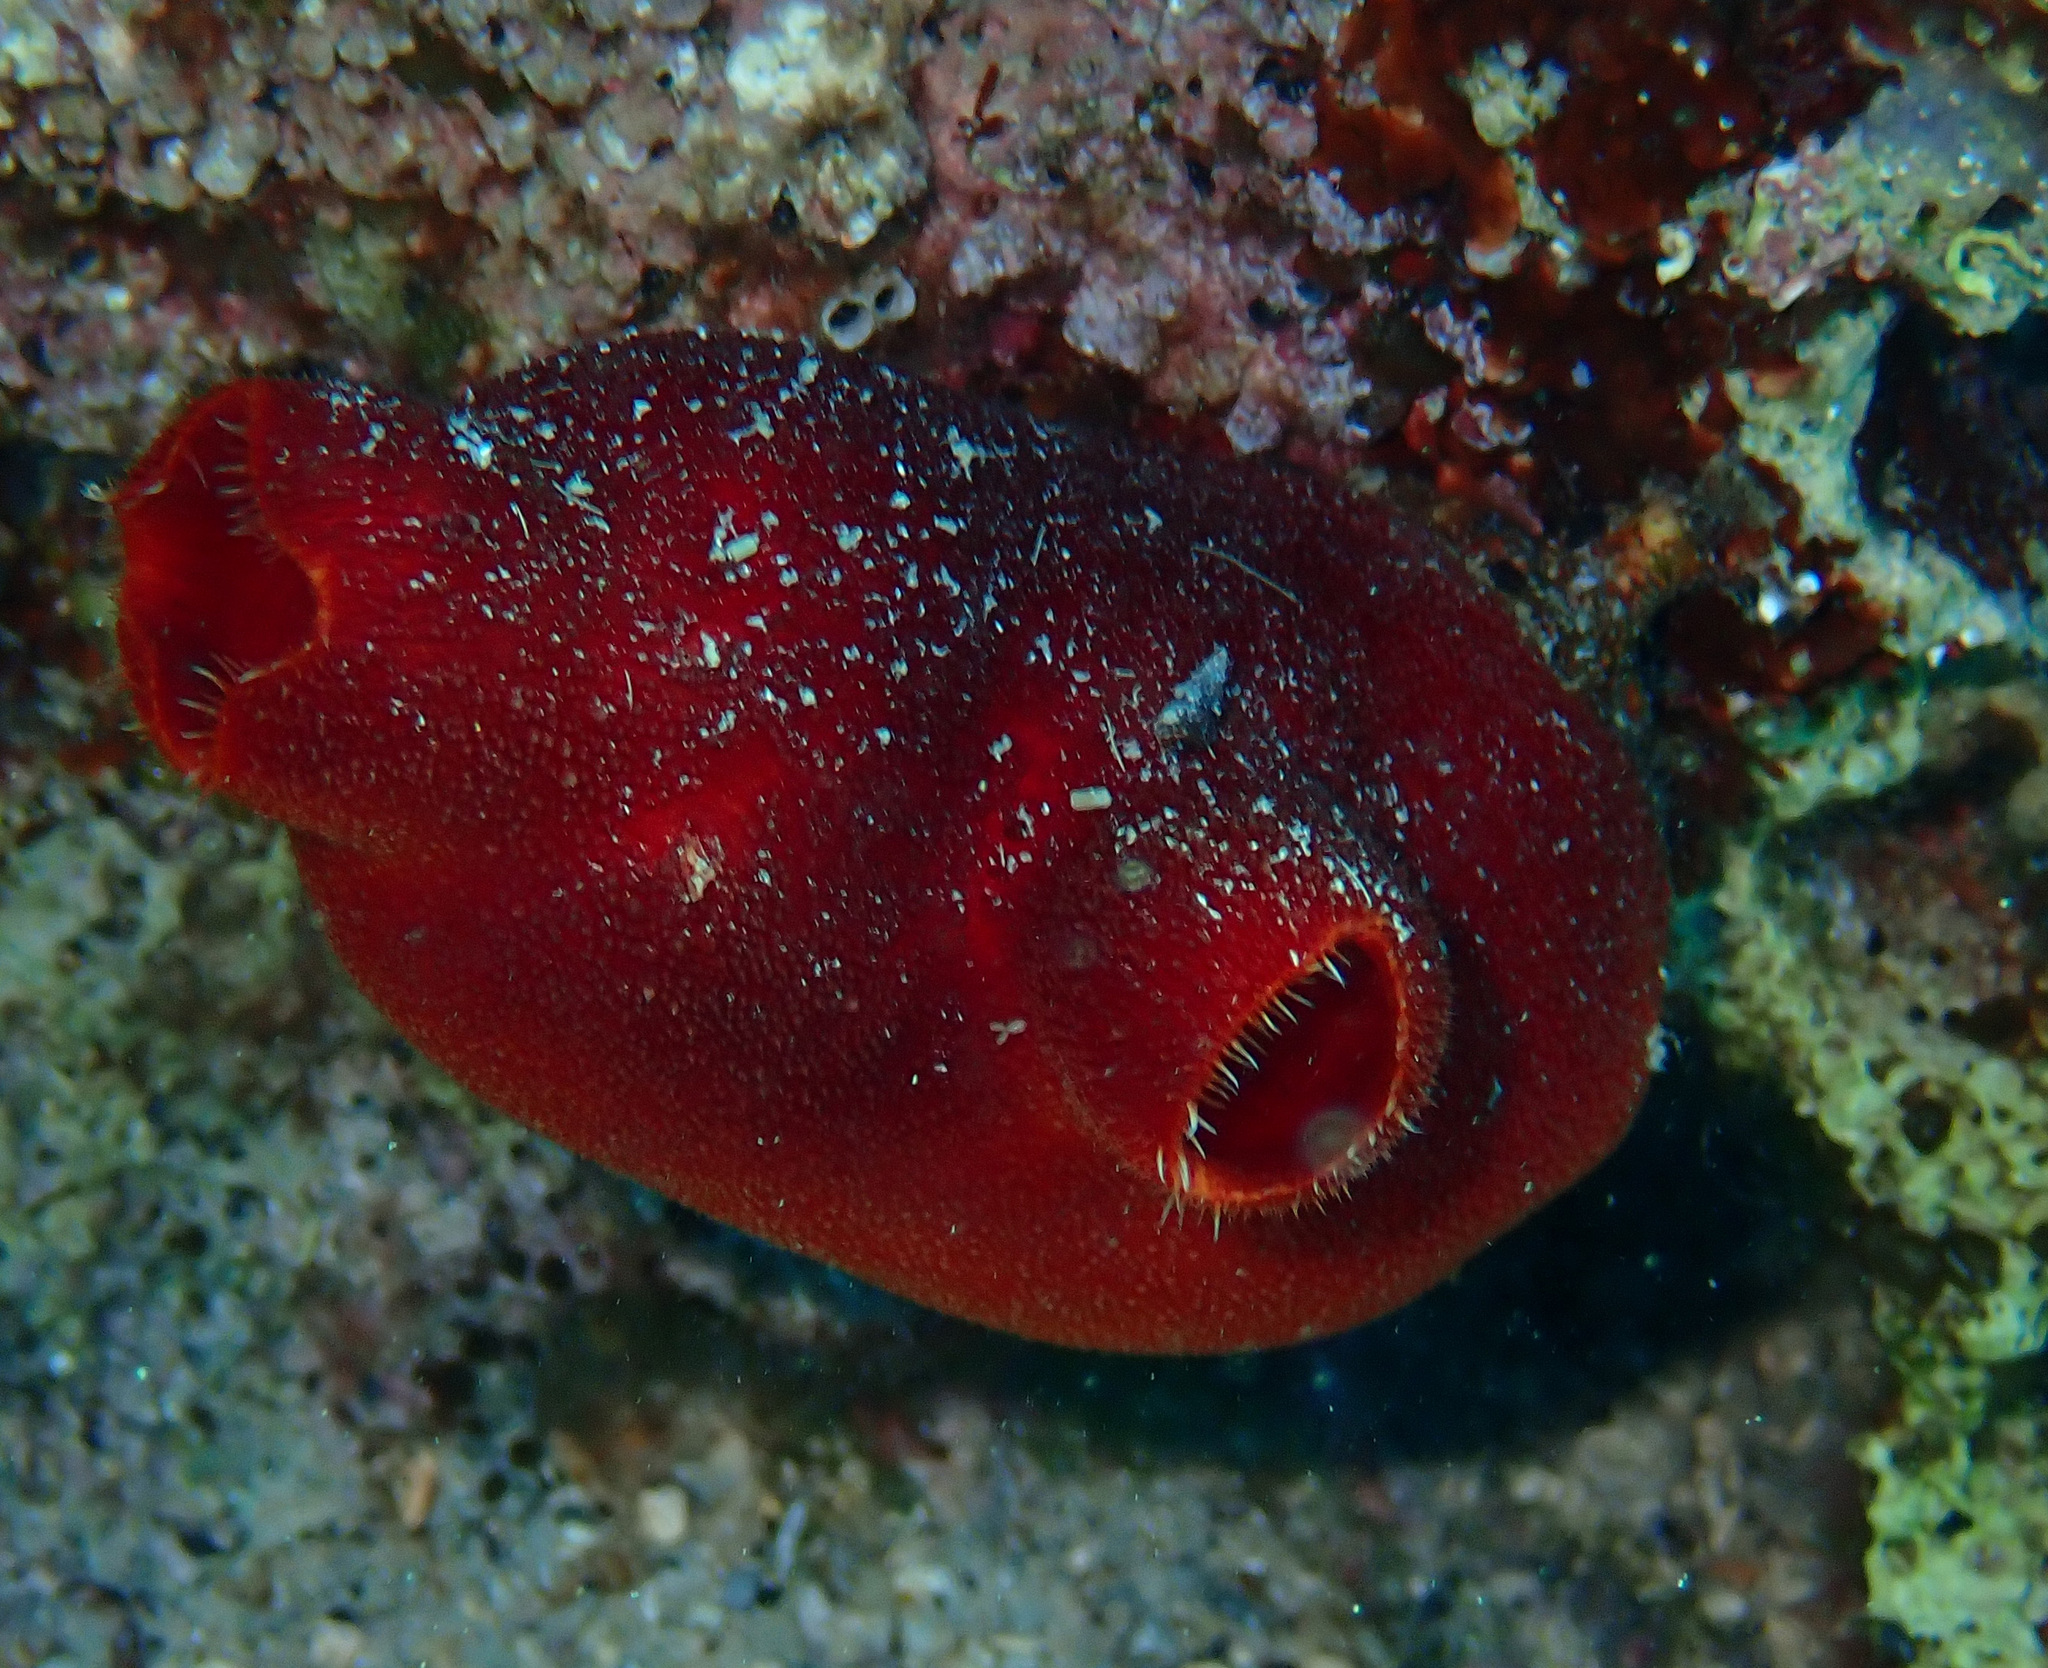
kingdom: Animalia
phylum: Chordata
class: Ascidiacea
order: Stolidobranchia
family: Pyuridae
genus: Halocynthia
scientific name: Halocynthia papillosa
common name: Red sea-squirt
